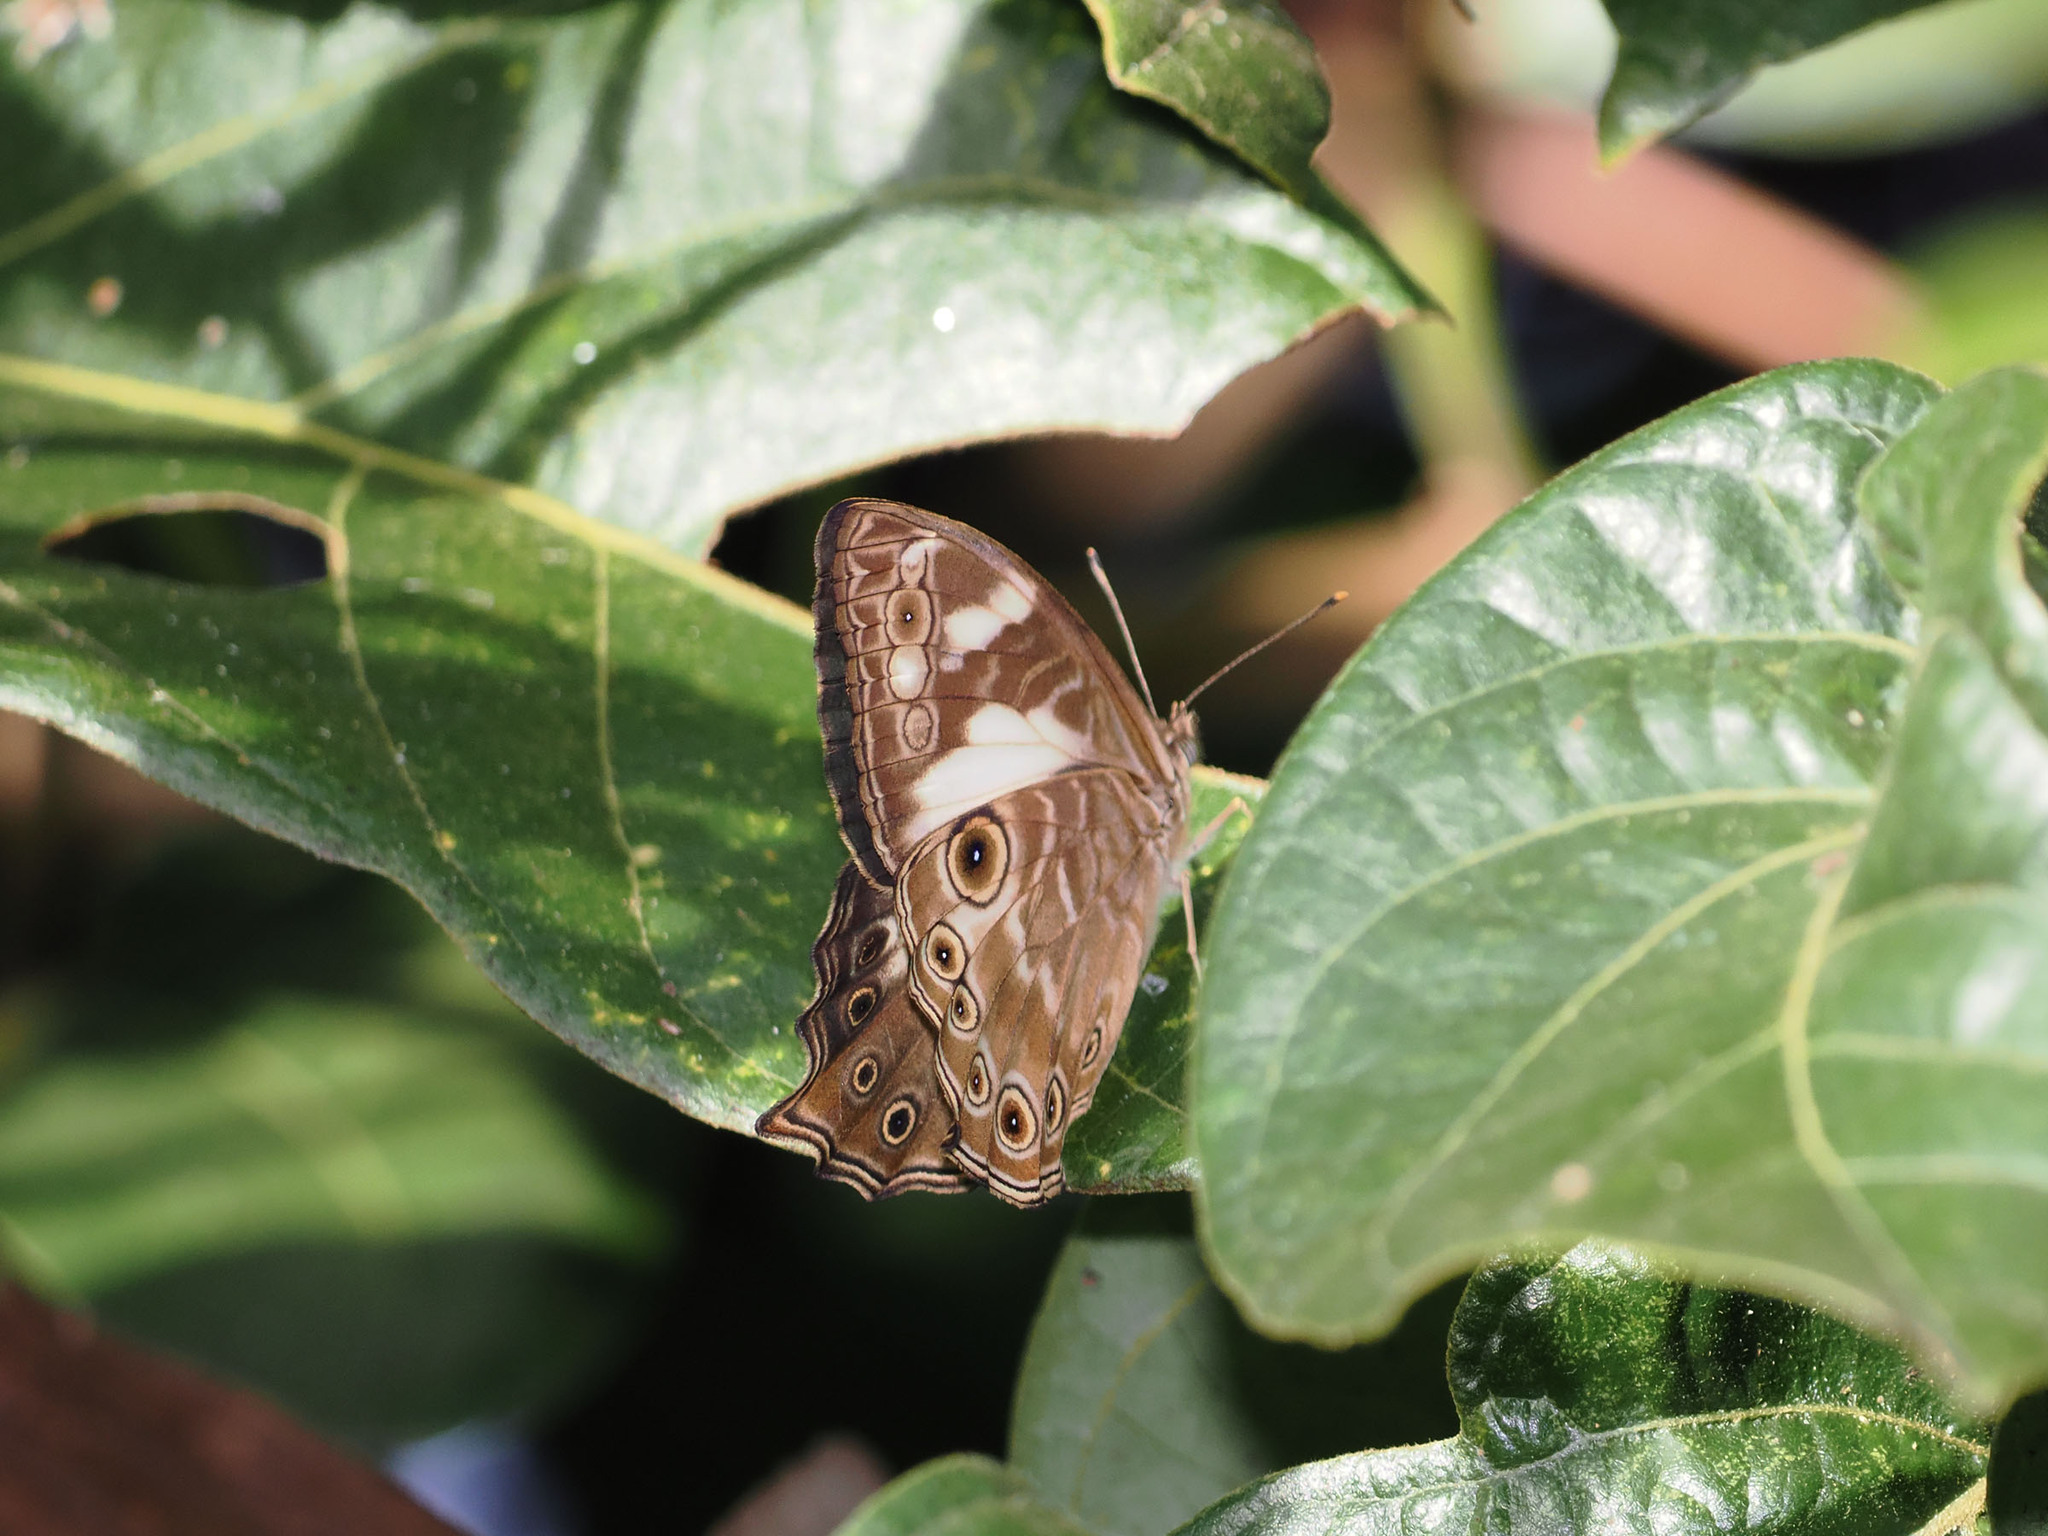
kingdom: Animalia
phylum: Arthropoda
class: Insecta
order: Lepidoptera
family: Nymphalidae
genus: Ptychandra
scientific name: Ptychandra leucogyne
